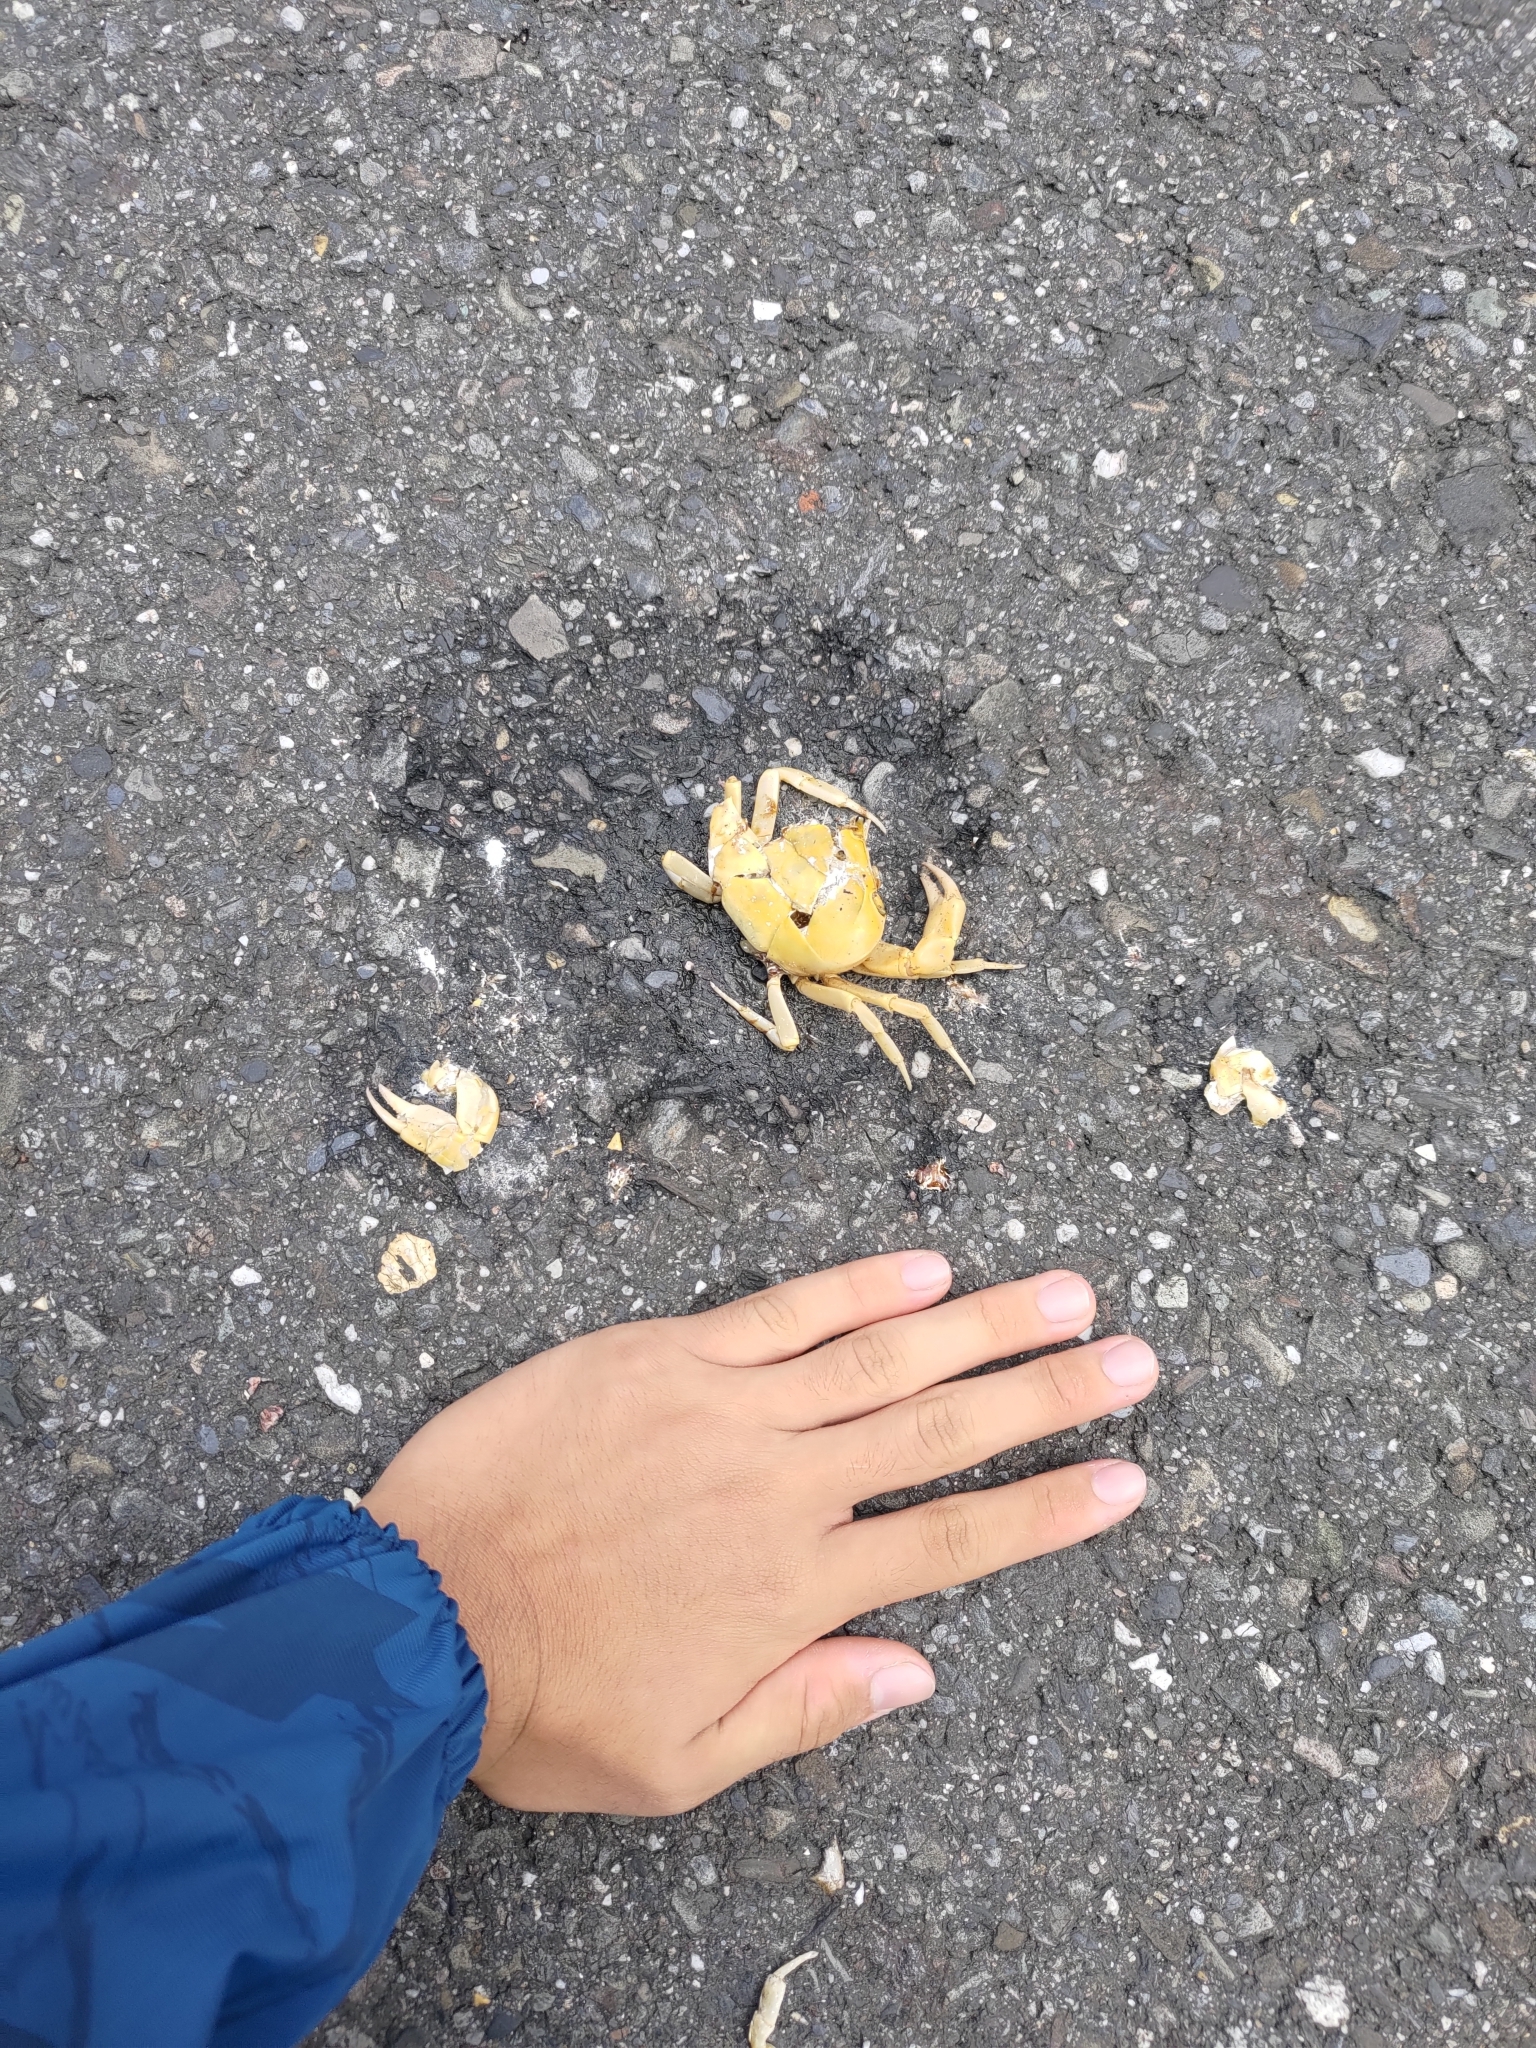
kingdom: Animalia
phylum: Arthropoda
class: Malacostraca
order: Decapoda
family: Potamidae
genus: Geothelphusa
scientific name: Geothelphusa albogilva
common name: Huang ze gray crab
